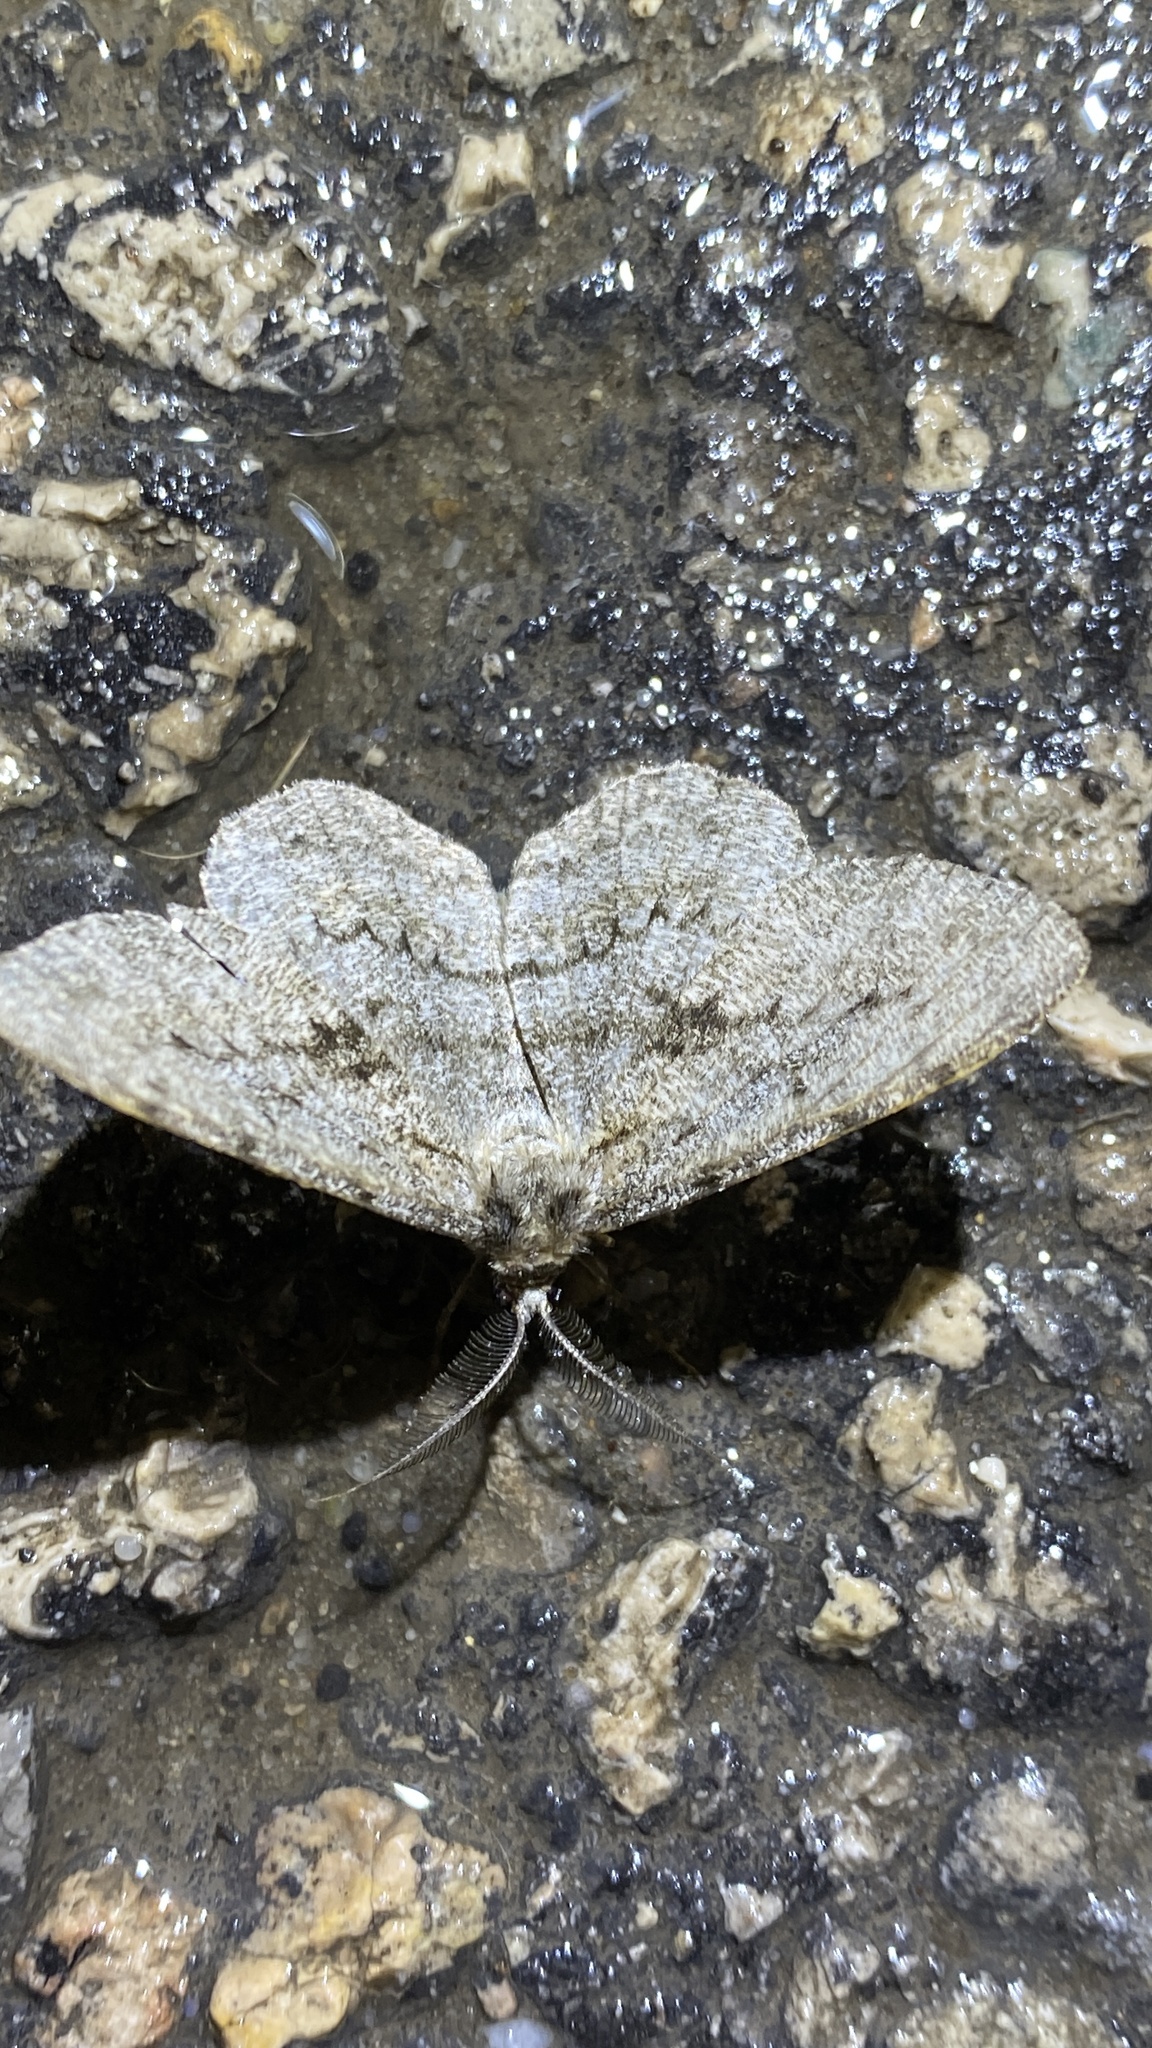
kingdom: Animalia
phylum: Arthropoda
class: Insecta
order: Lepidoptera
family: Geometridae
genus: Hypomecis
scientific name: Hypomecis roboraria
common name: Great oak beauty
